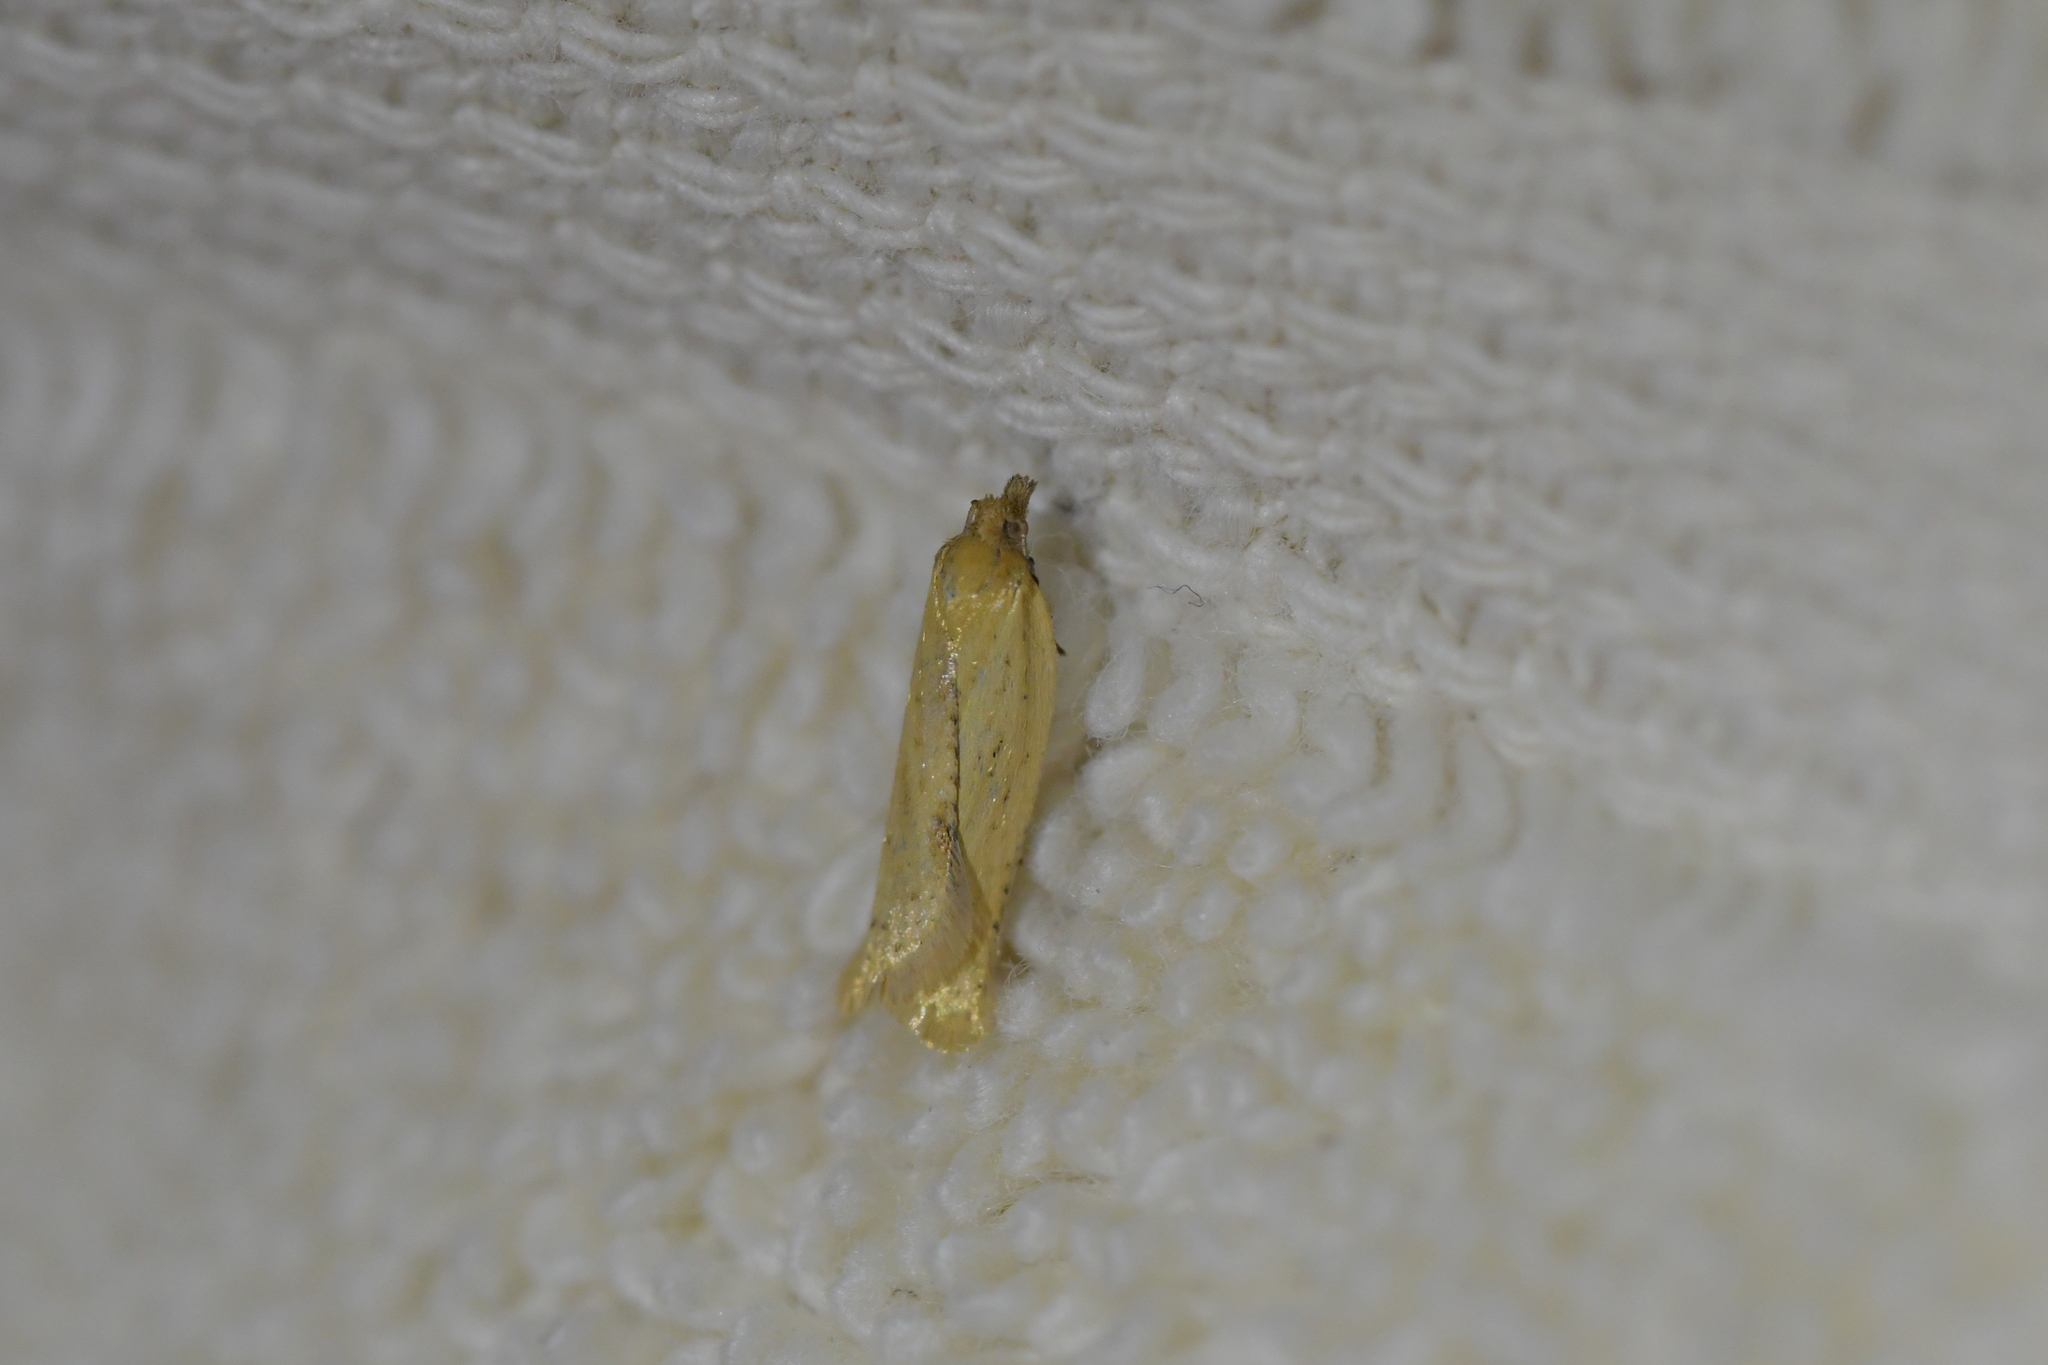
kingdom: Animalia
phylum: Arthropoda
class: Insecta
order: Lepidoptera
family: Tortricidae
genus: Clepsis
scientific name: Clepsis
